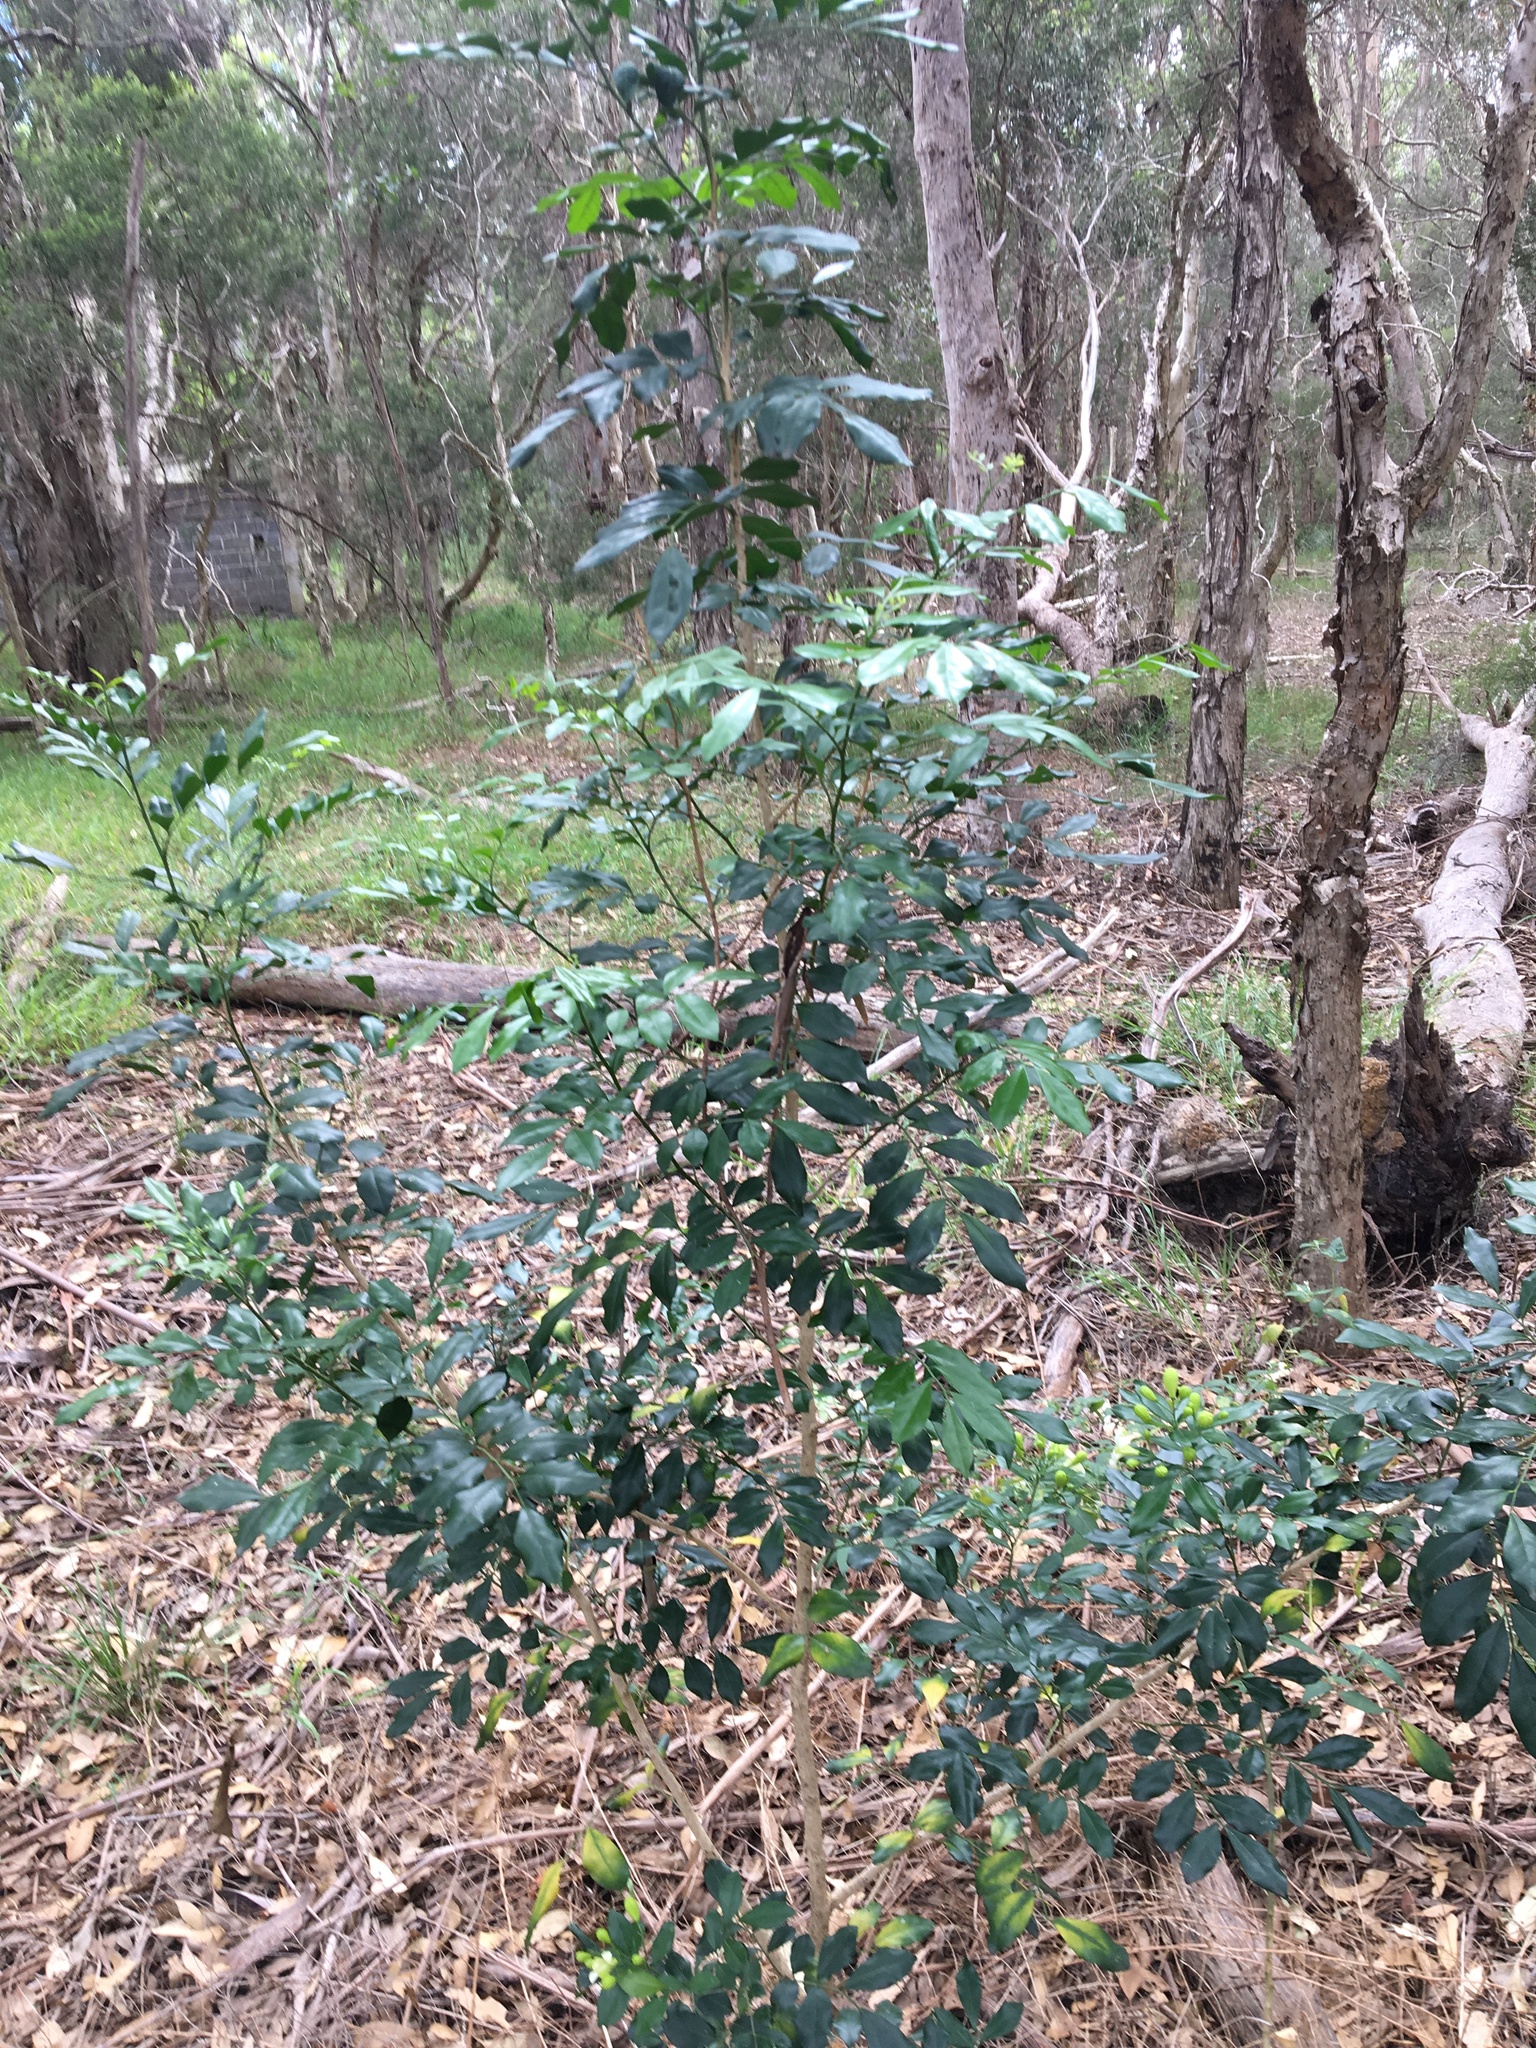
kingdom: Plantae
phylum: Tracheophyta
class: Magnoliopsida
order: Sapindales
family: Rutaceae
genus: Murraya
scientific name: Murraya paniculata
